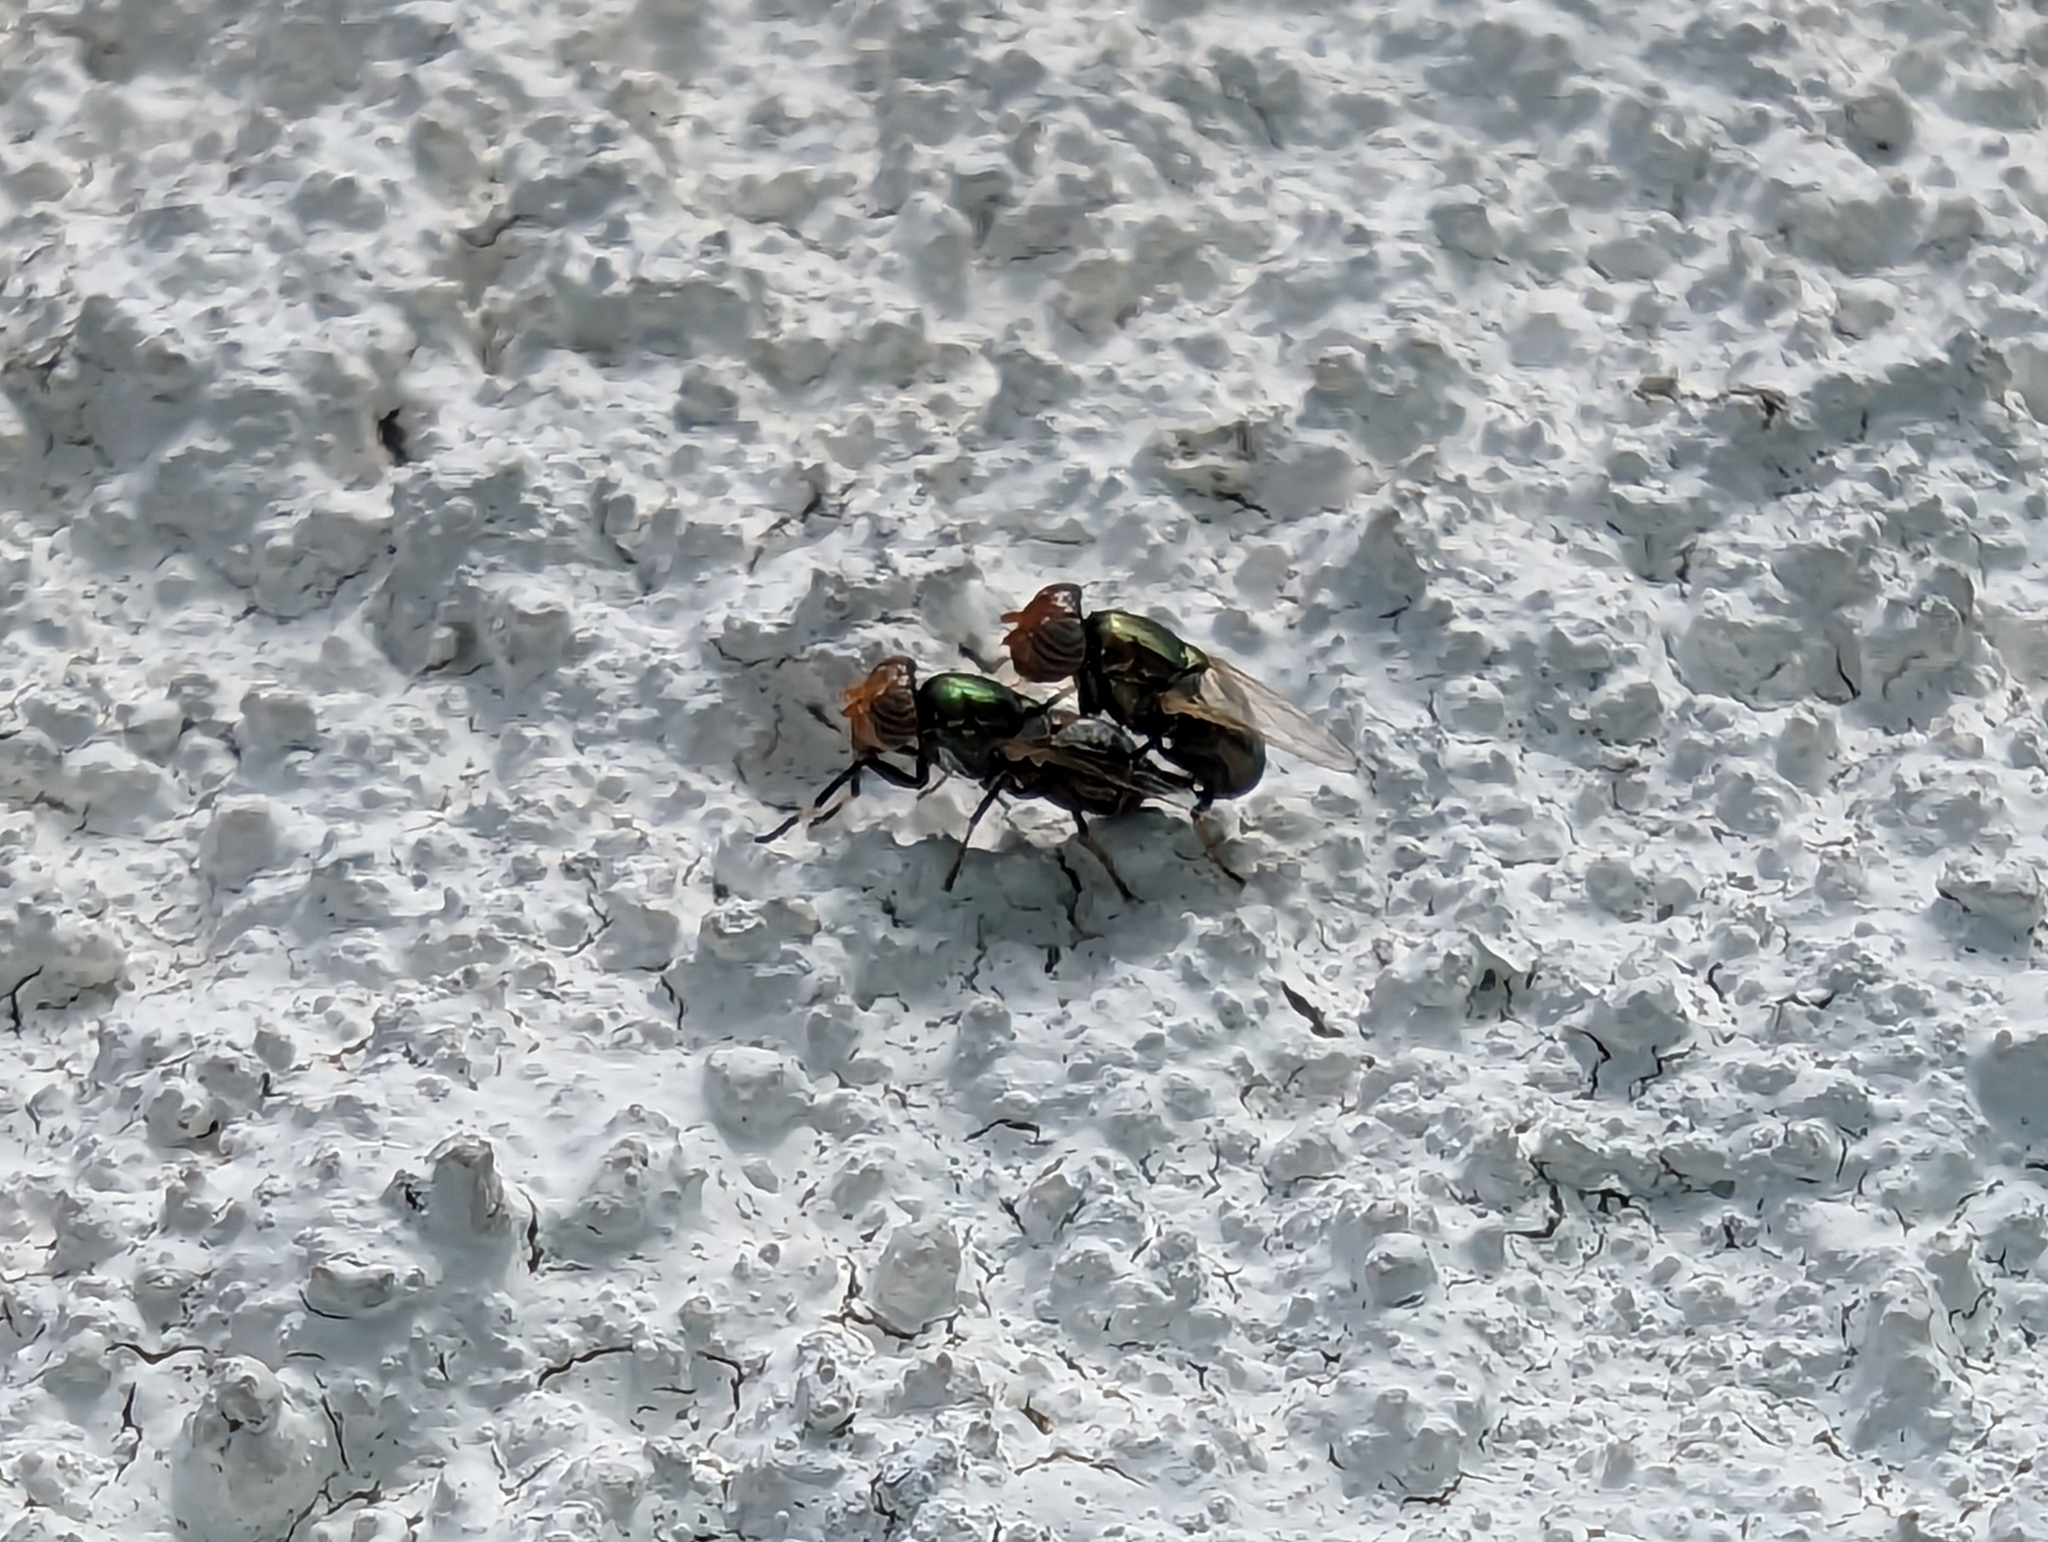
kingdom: Animalia
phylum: Arthropoda
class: Insecta
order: Diptera
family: Ulidiidae
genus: Physiphora
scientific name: Physiphora alceae
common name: Picture-winged fly
